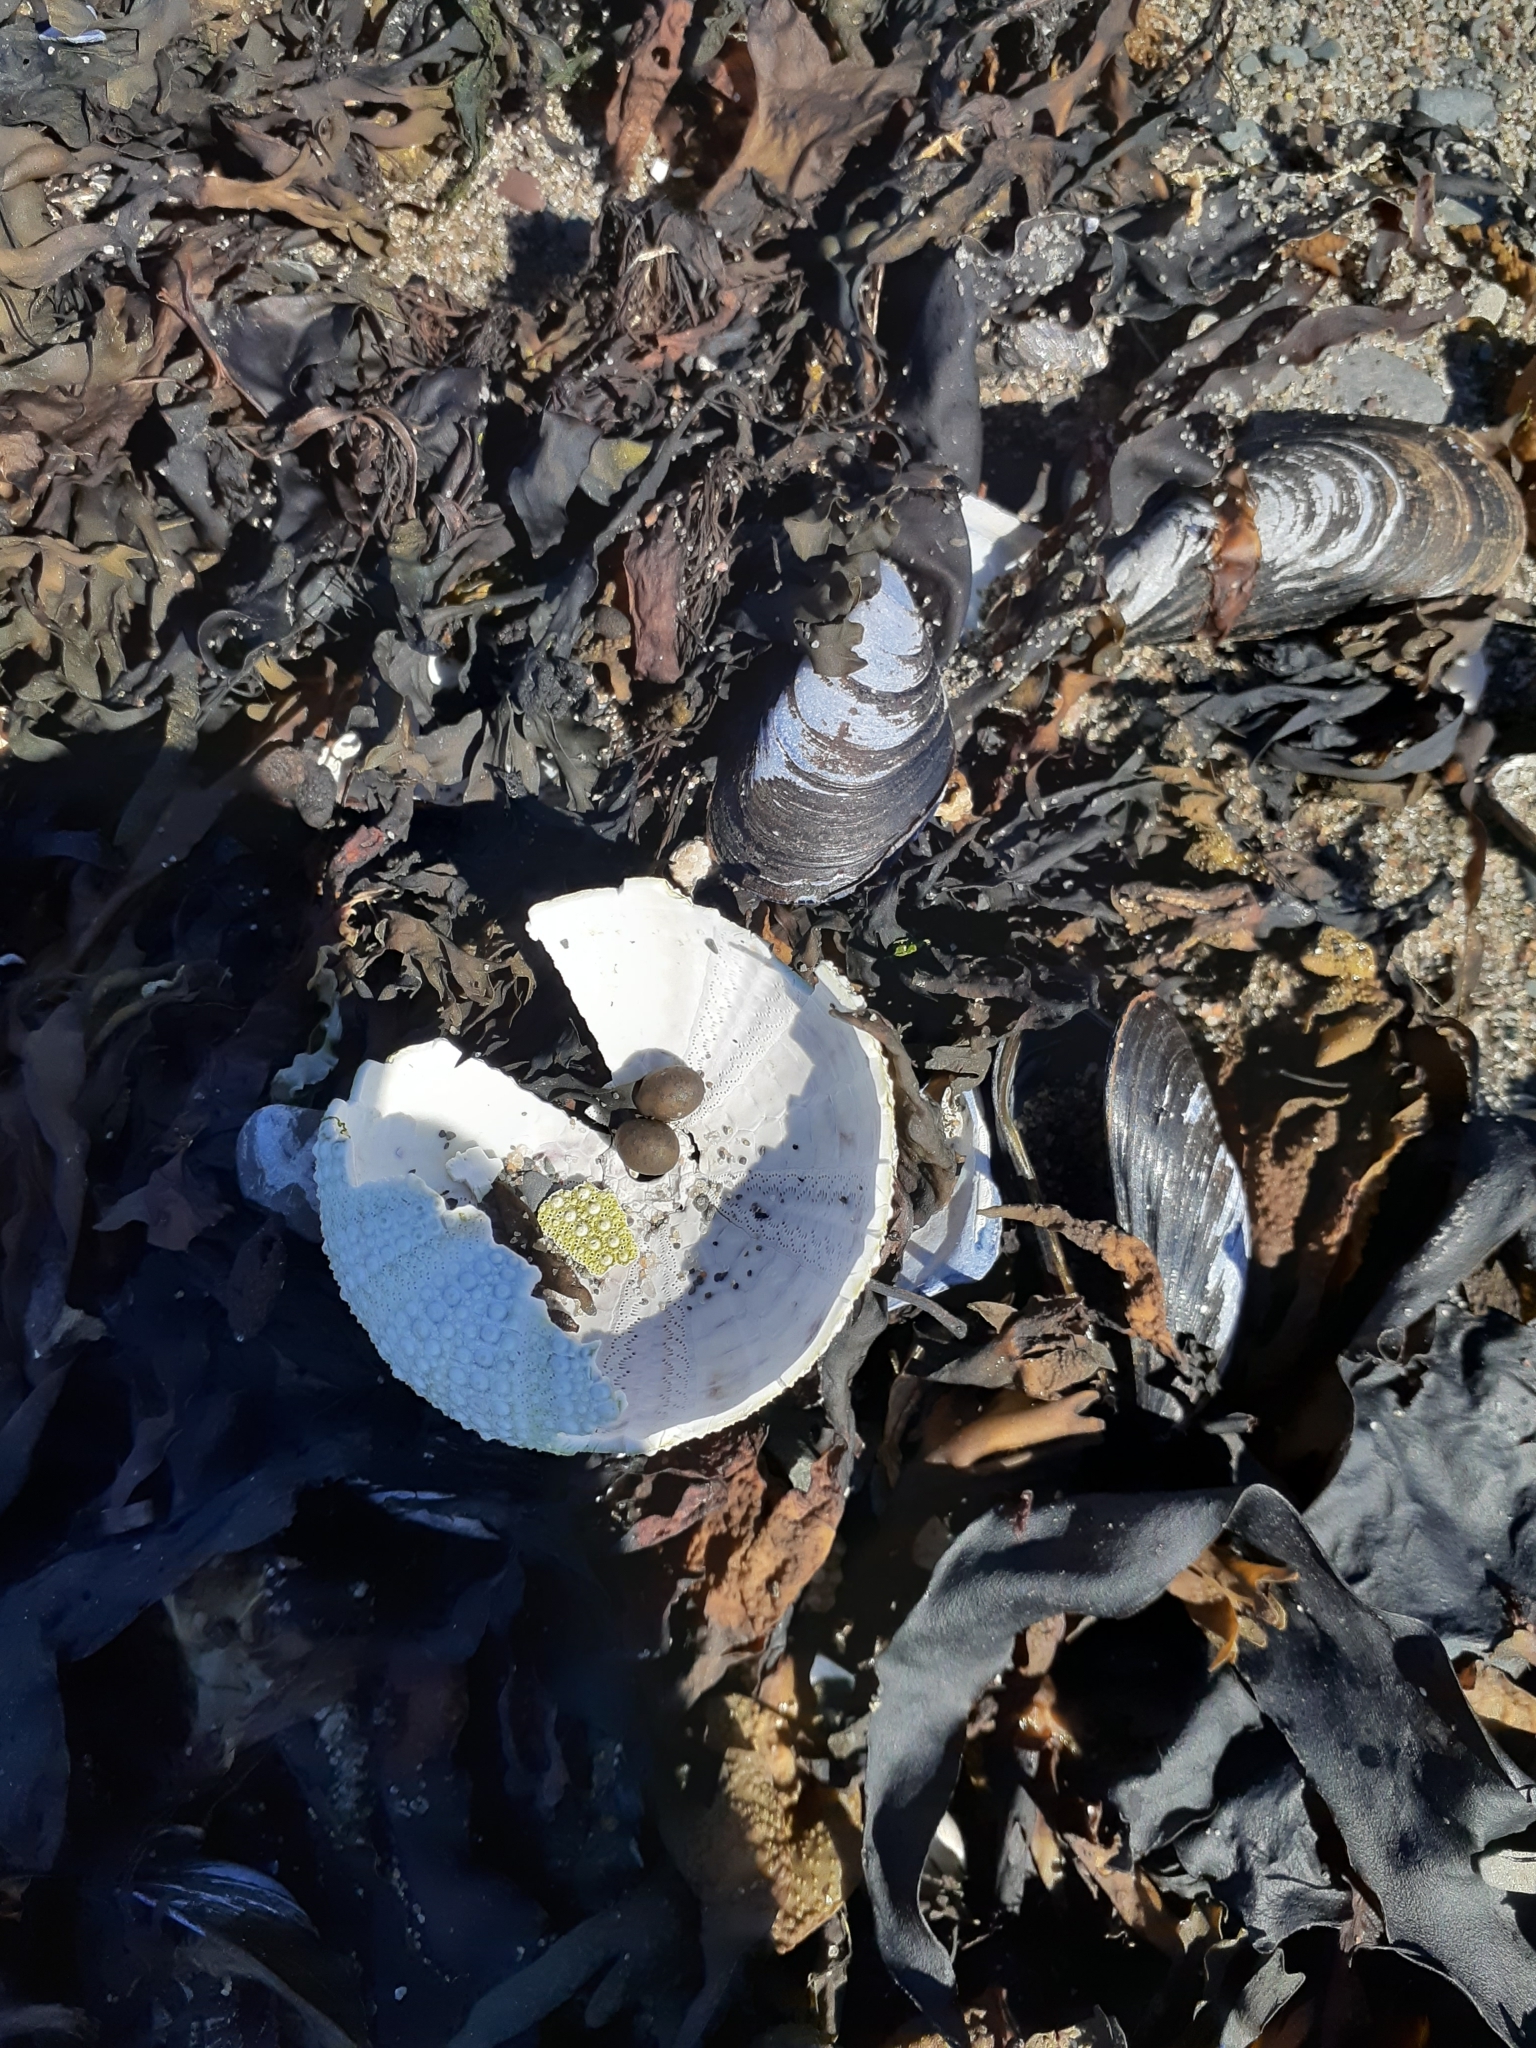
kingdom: Animalia
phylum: Echinodermata
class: Echinoidea
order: Camarodonta
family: Strongylocentrotidae
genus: Strongylocentrotus
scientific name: Strongylocentrotus droebachiensis
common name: Northern sea urchin
